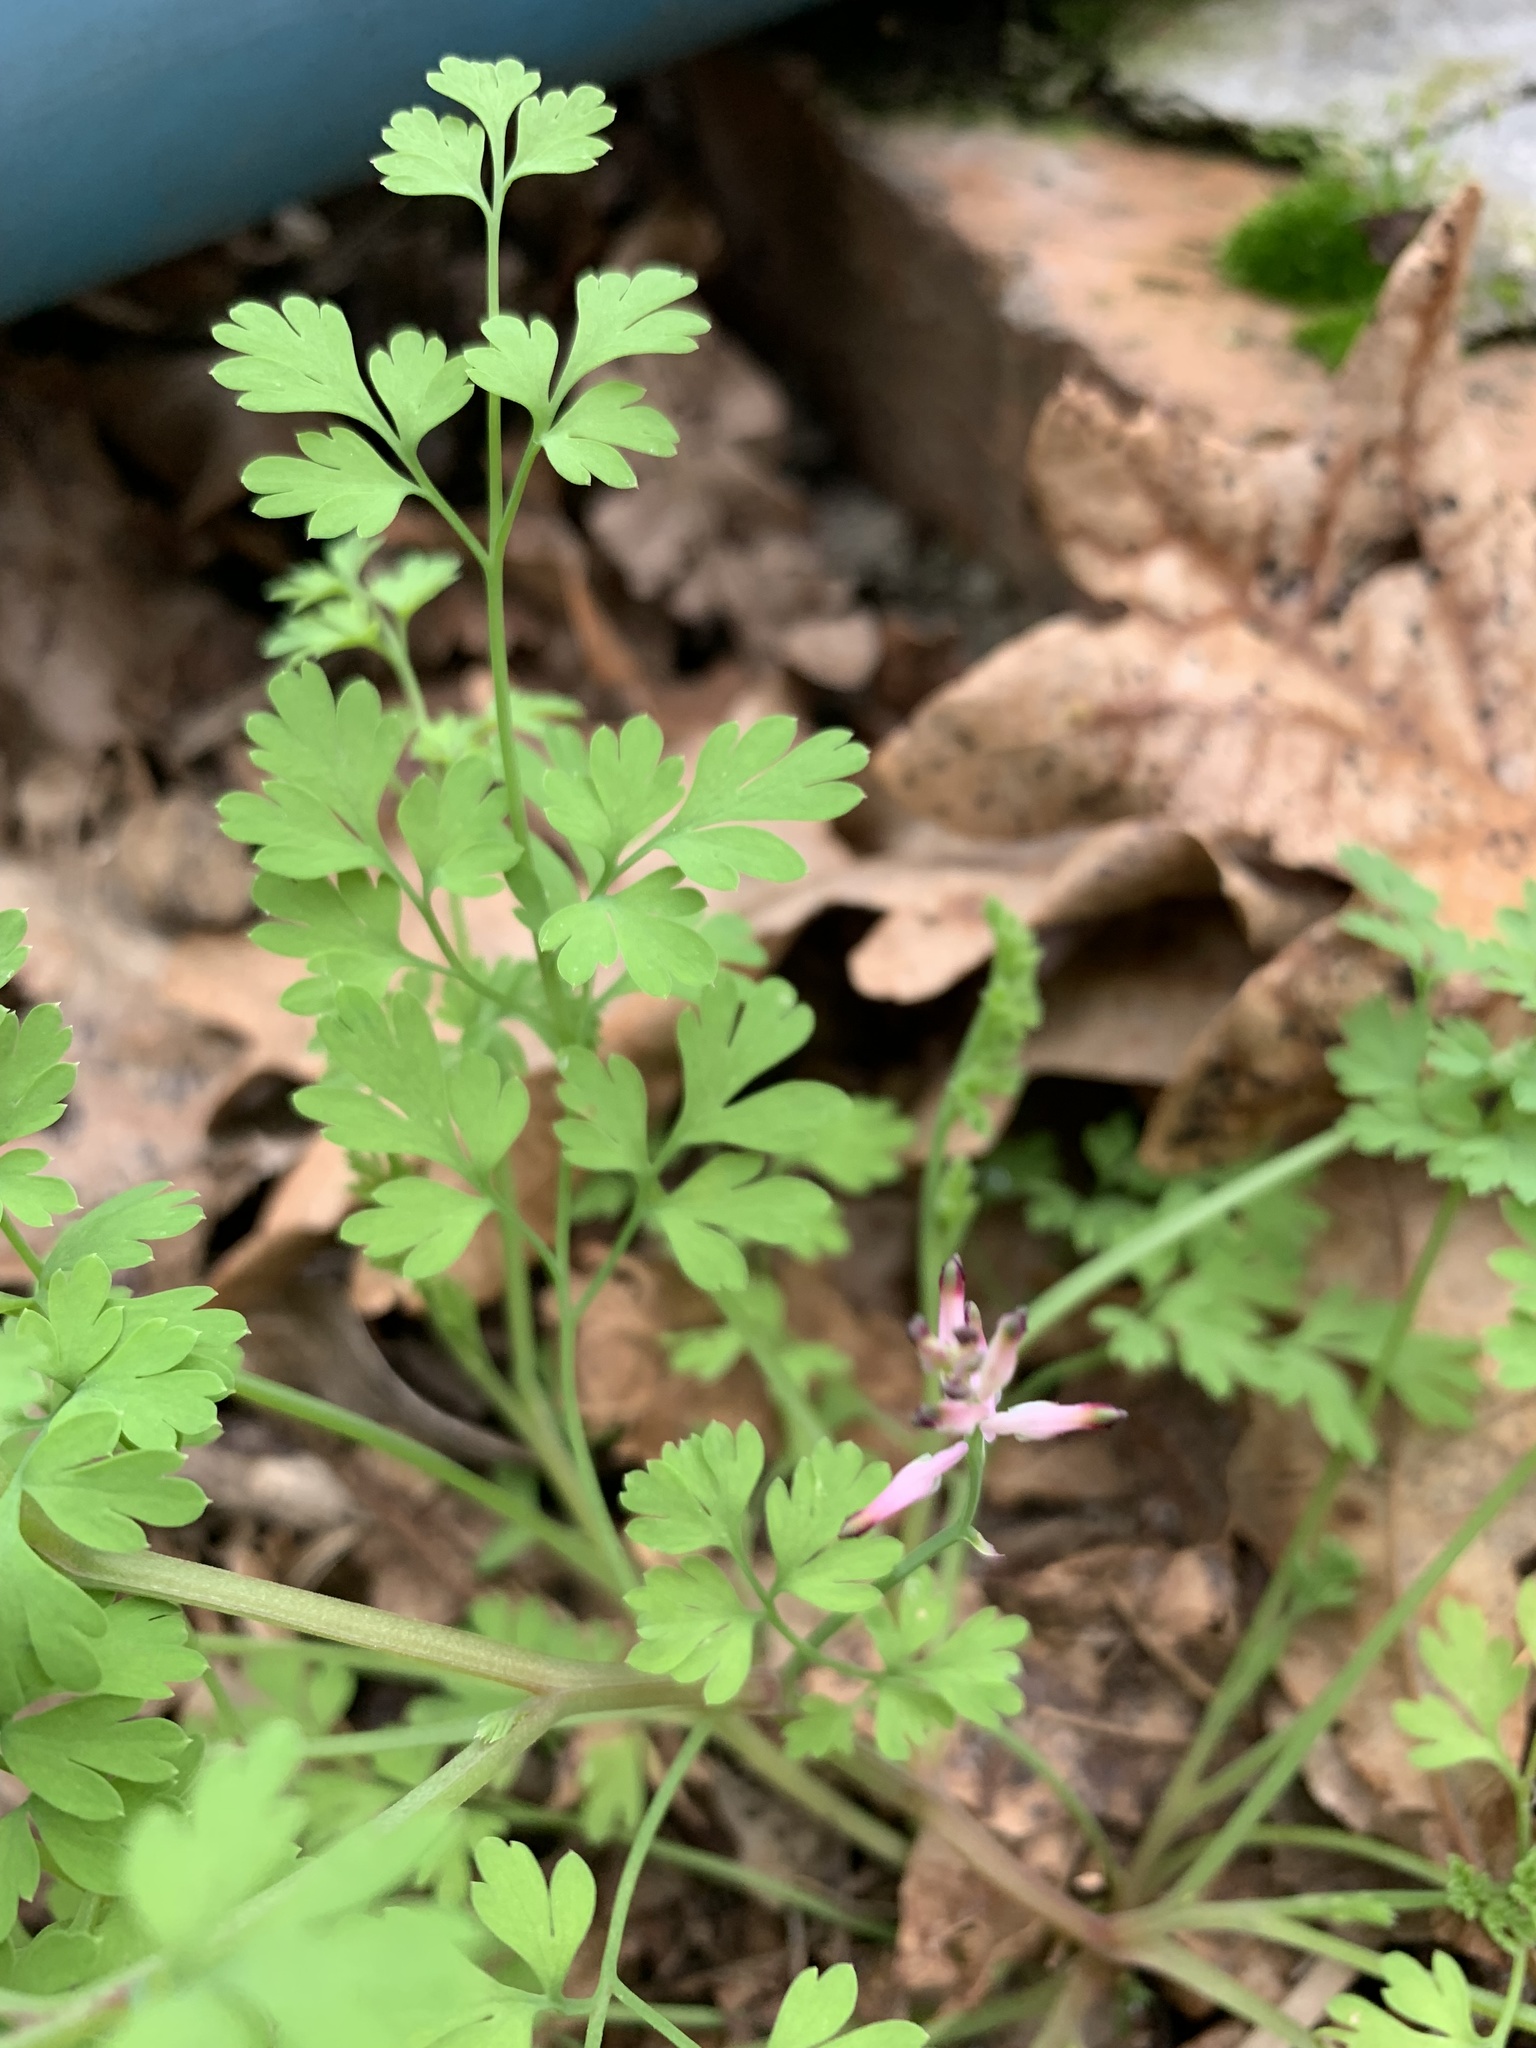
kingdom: Plantae
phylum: Tracheophyta
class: Magnoliopsida
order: Ranunculales
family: Papaveraceae
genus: Fumaria
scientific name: Fumaria muralis
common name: Common ramping-fumitory
